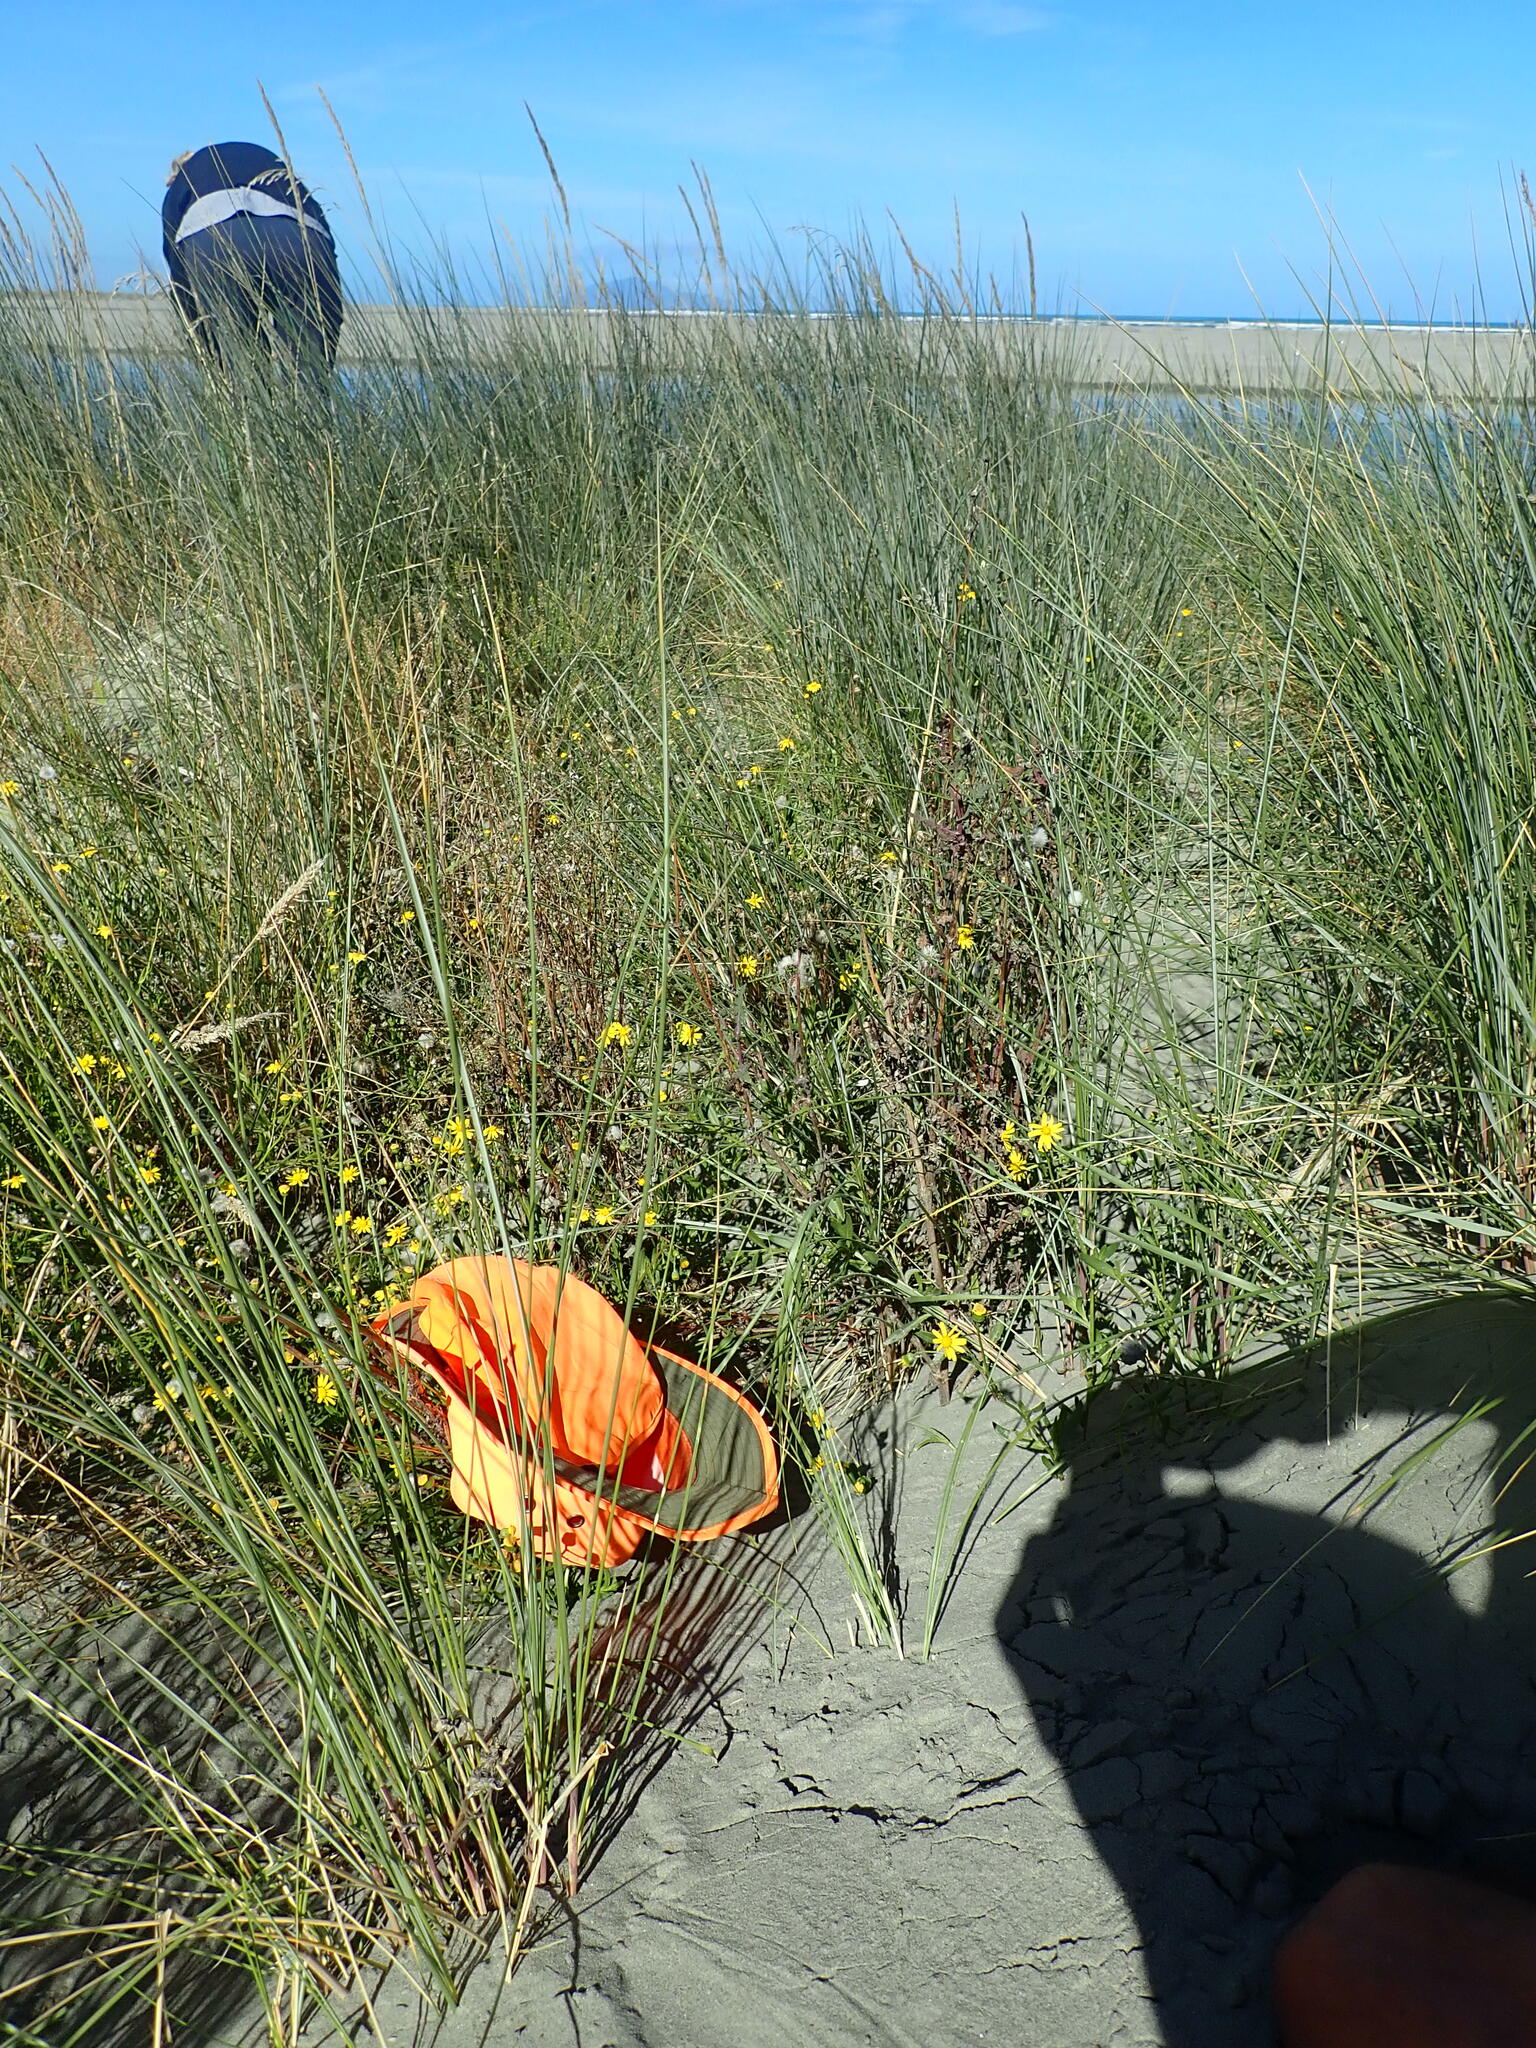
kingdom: Plantae
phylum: Tracheophyta
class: Magnoliopsida
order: Asterales
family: Asteraceae
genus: Senecio
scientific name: Senecio skirrhodon
